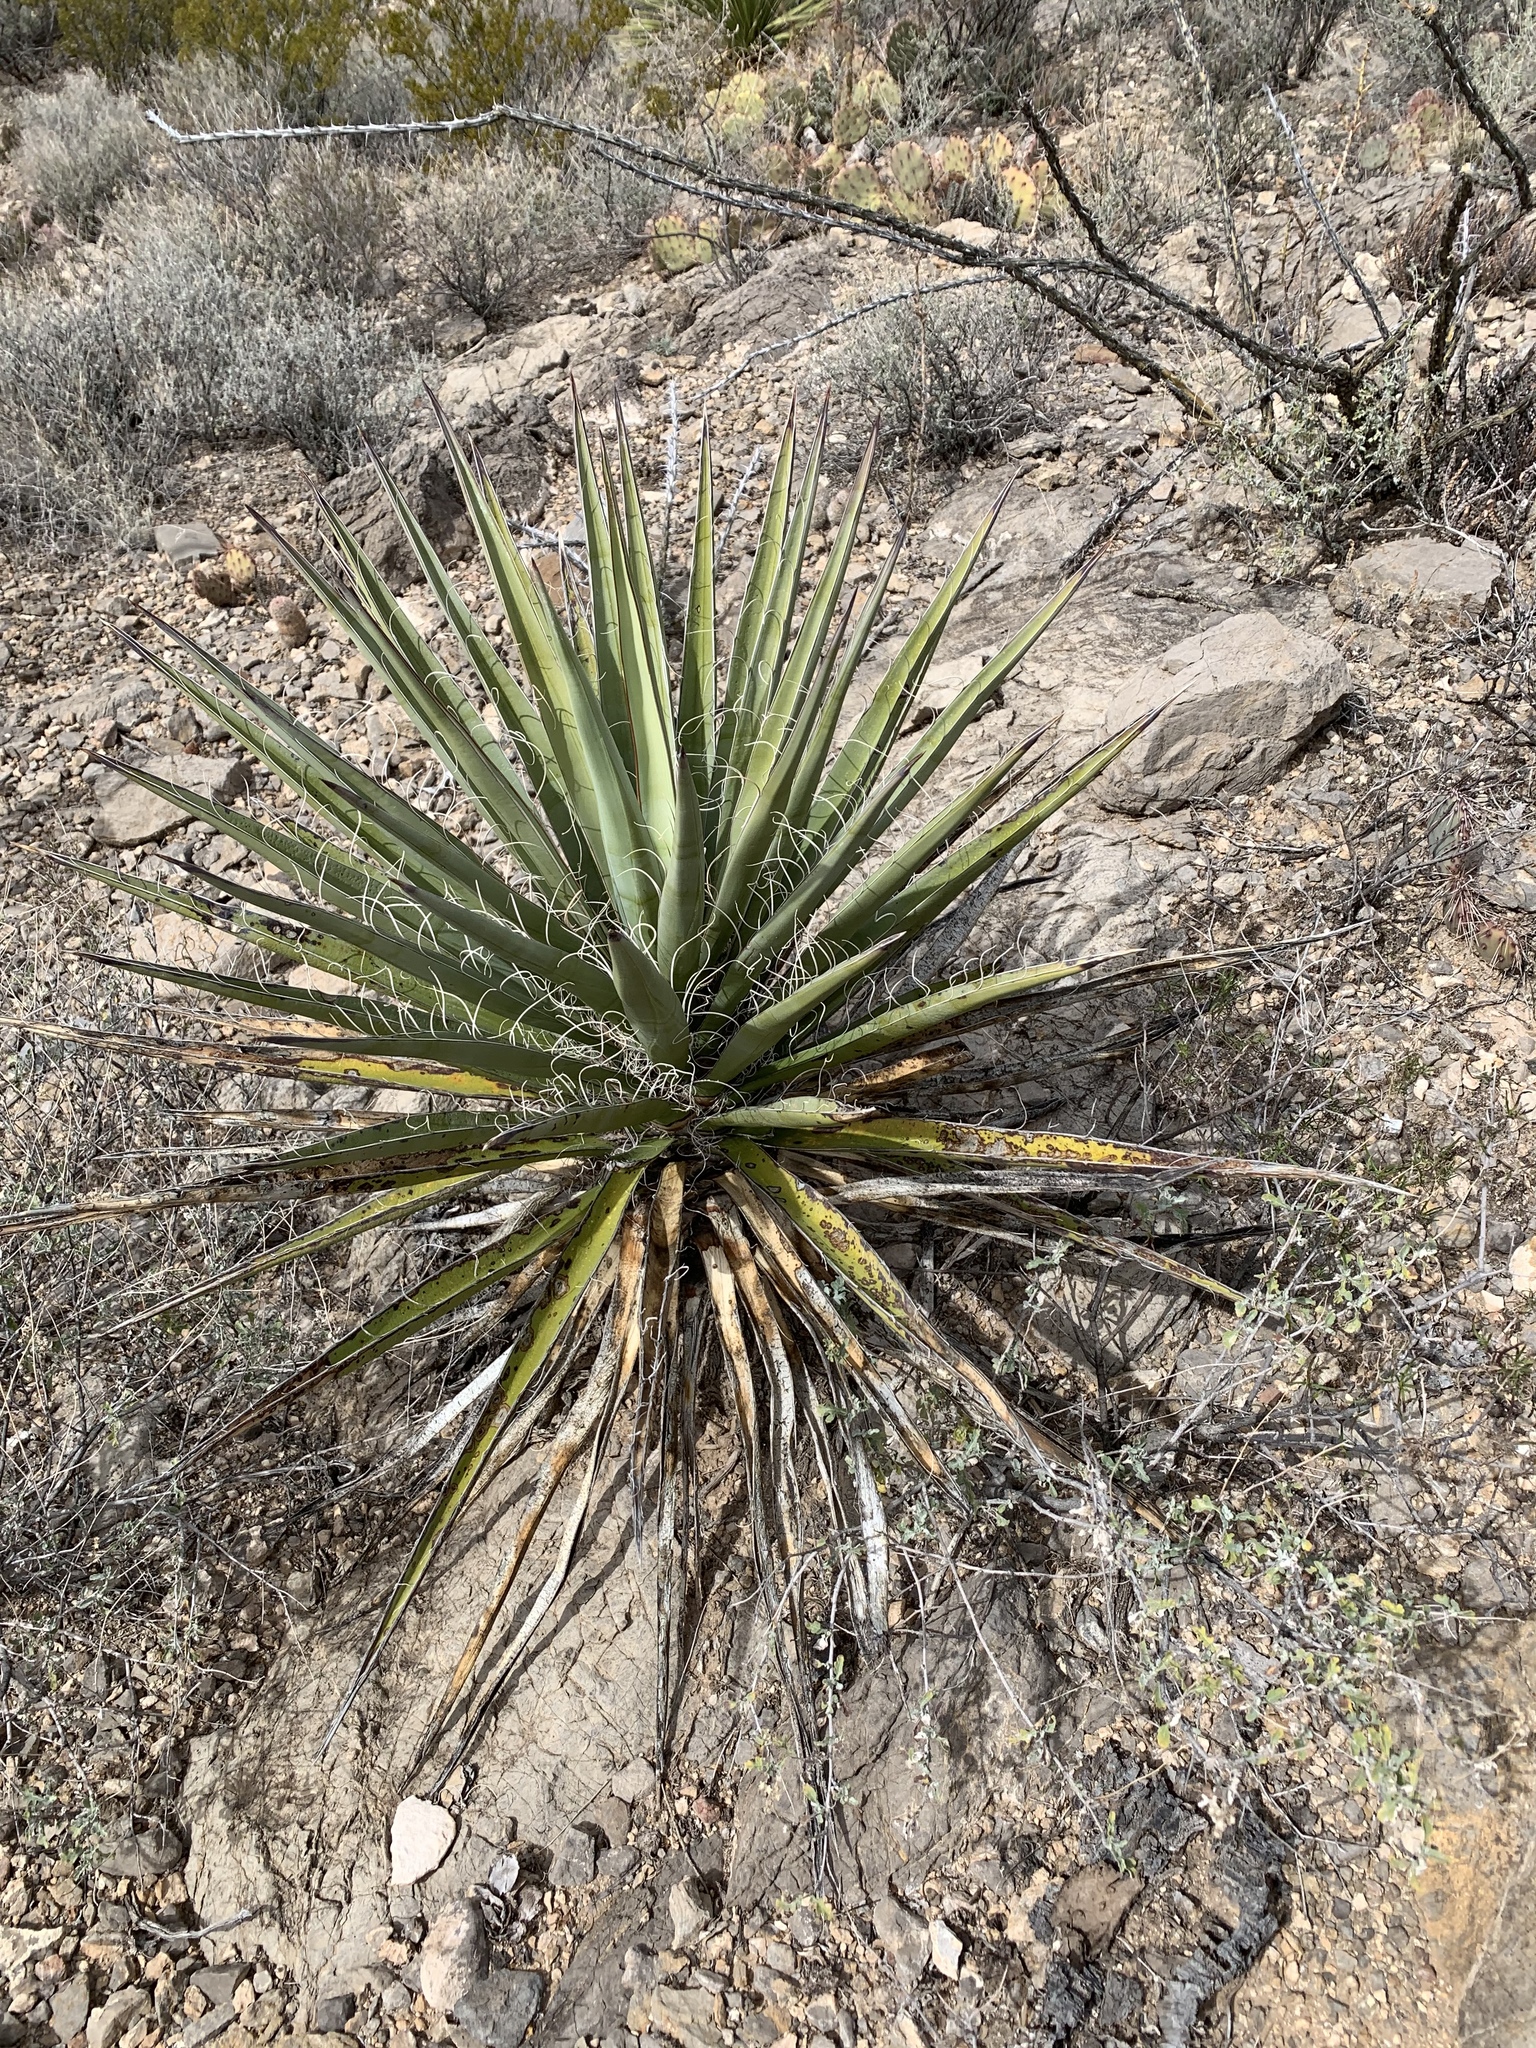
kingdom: Plantae
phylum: Tracheophyta
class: Liliopsida
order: Asparagales
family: Asparagaceae
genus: Yucca
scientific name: Yucca treculiana
